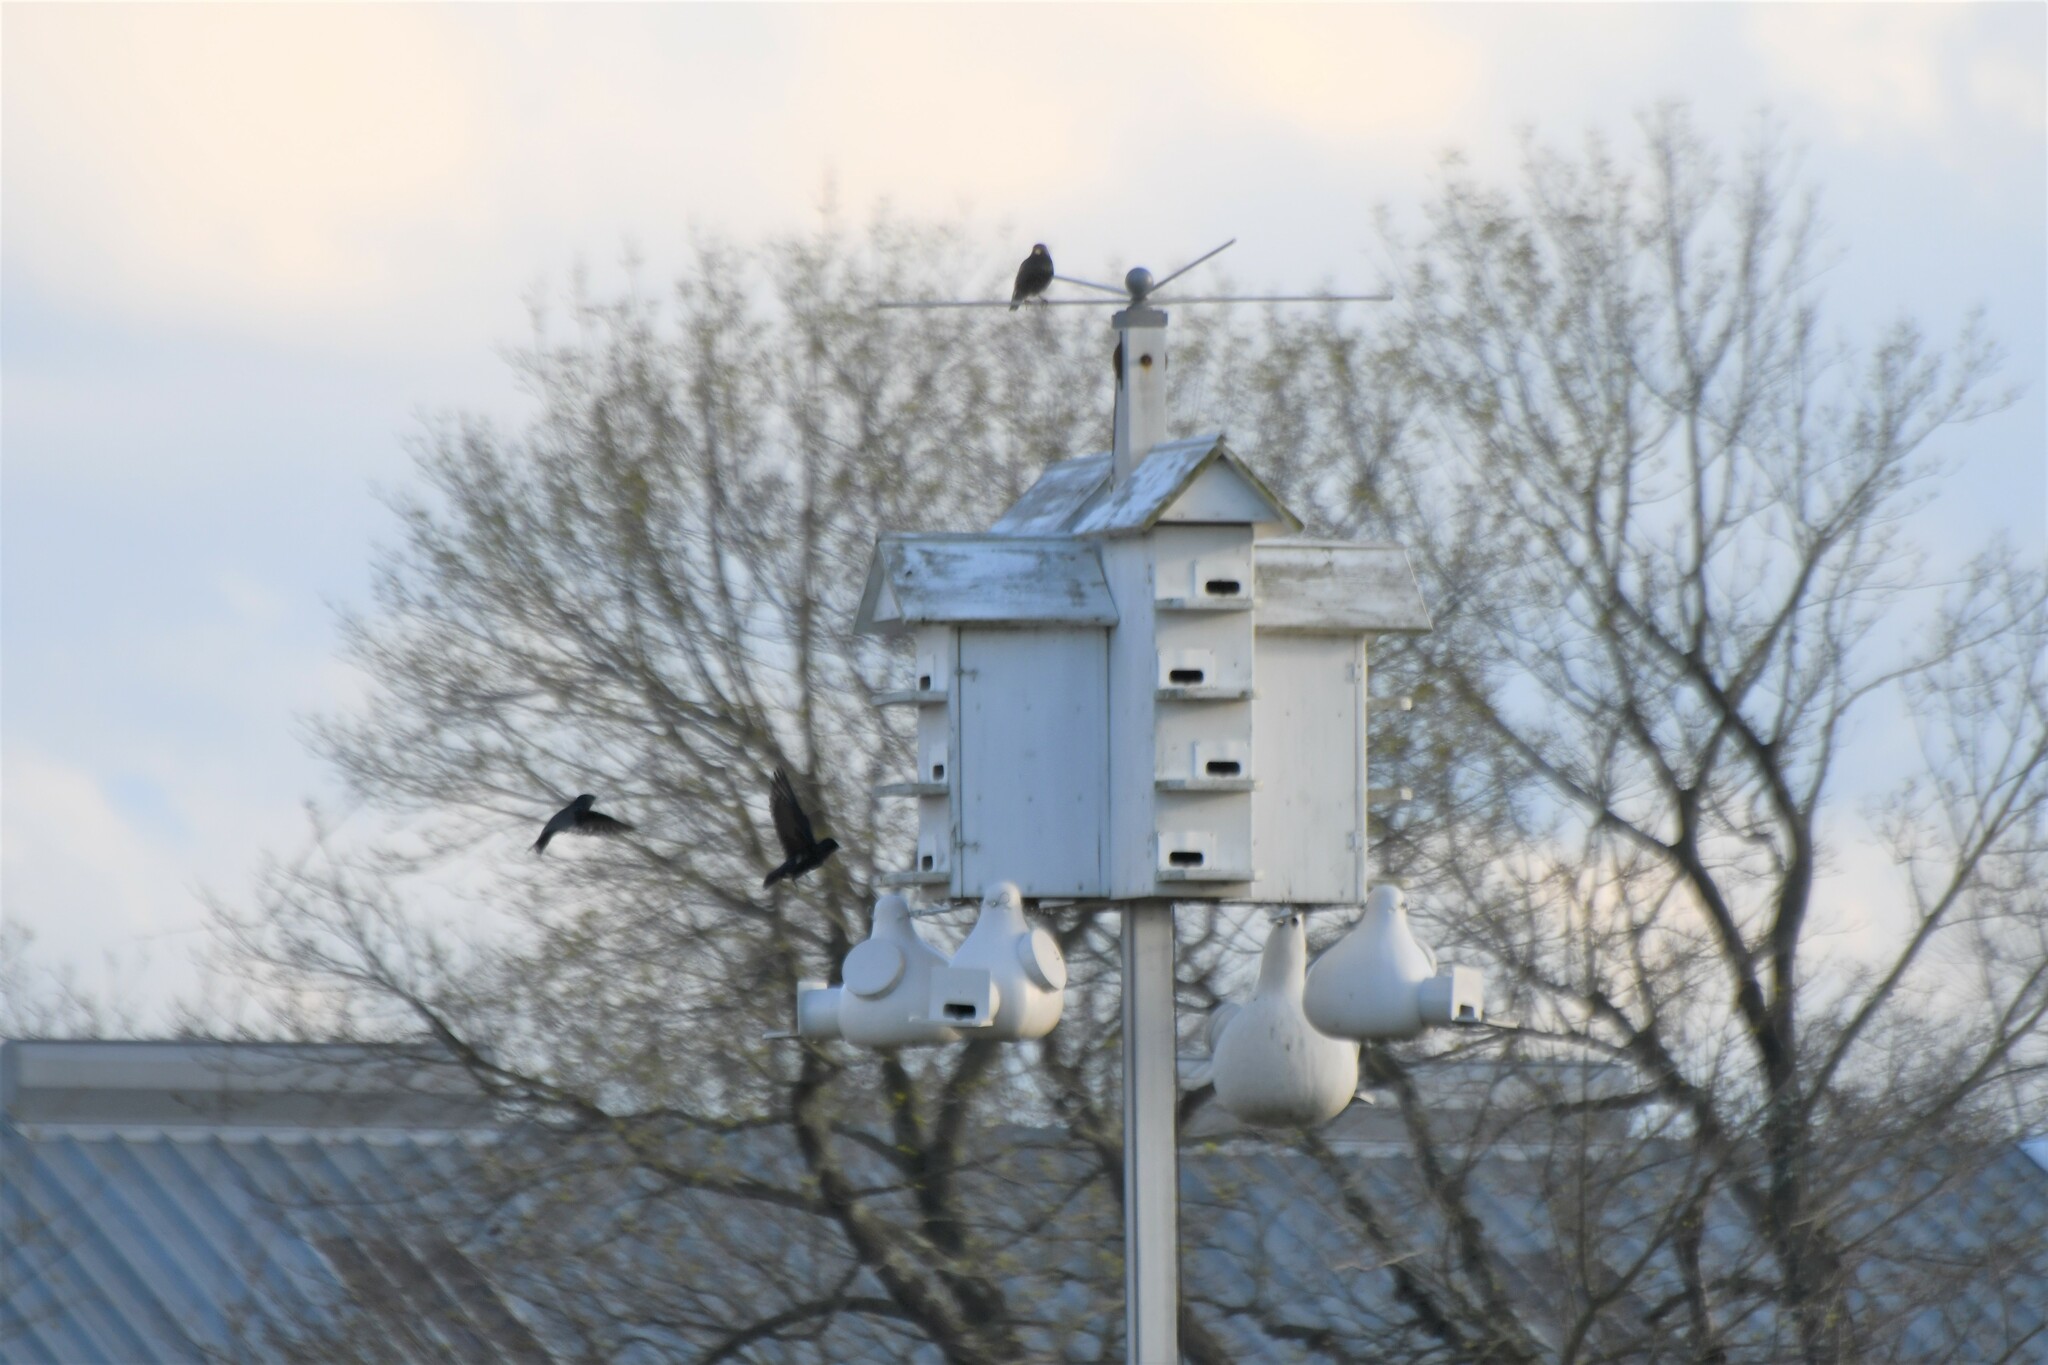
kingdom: Animalia
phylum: Chordata
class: Aves
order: Passeriformes
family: Hirundinidae
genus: Progne
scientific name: Progne subis
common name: Purple martin
